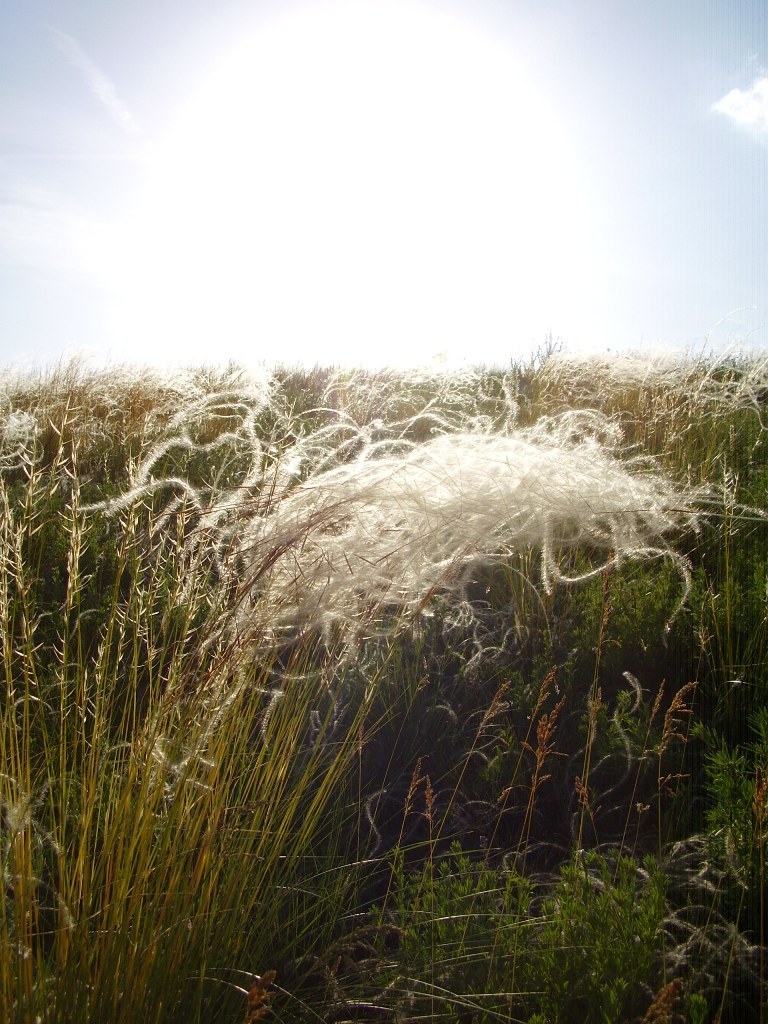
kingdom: Plantae
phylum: Tracheophyta
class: Liliopsida
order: Poales
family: Poaceae
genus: Stipa
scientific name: Stipa pennata
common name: European feather grass
